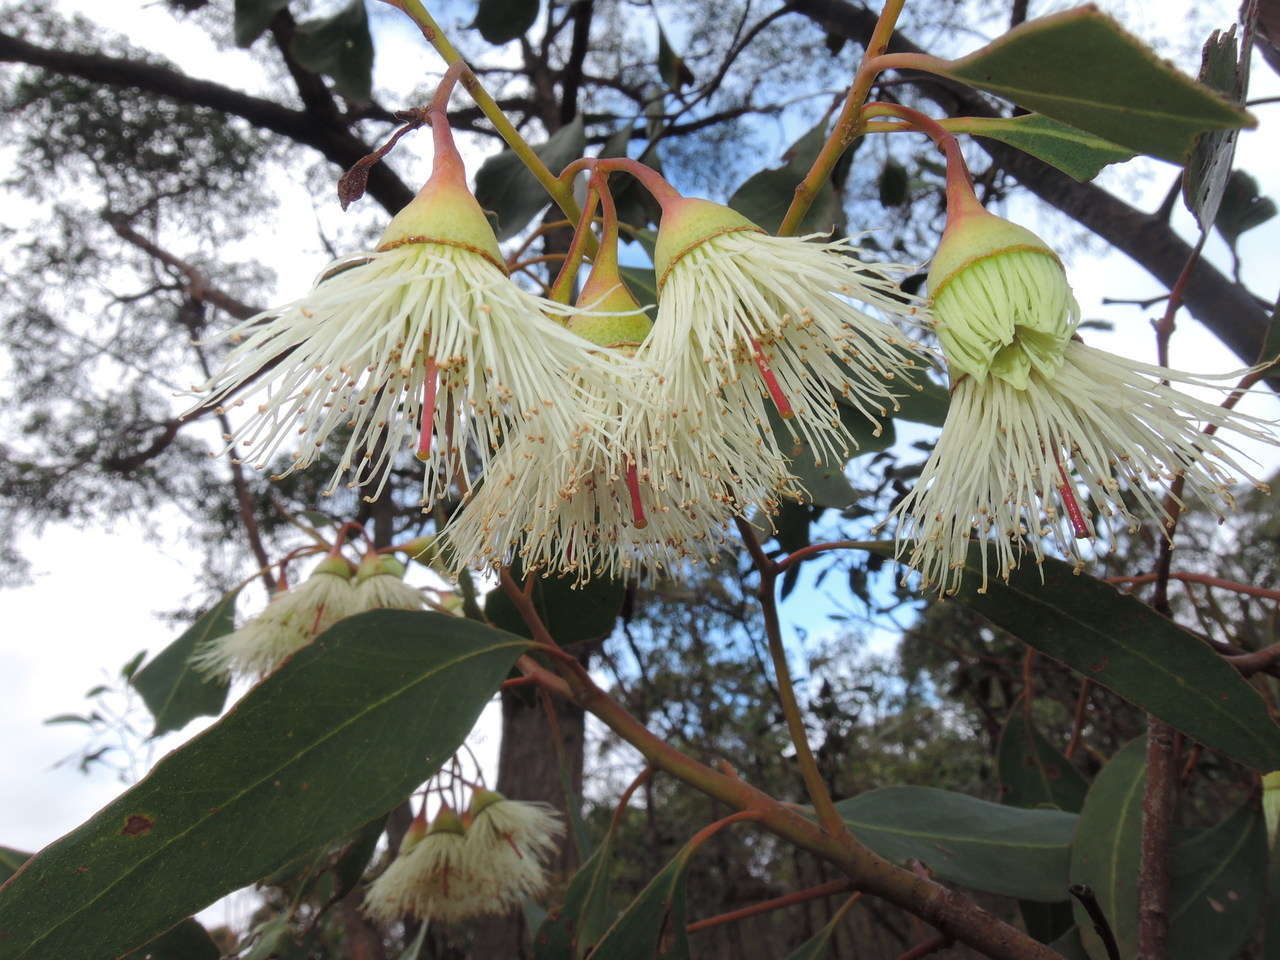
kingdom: Plantae
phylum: Tracheophyta
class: Magnoliopsida
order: Myrtales
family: Myrtaceae
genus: Eucalyptus
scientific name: Eucalyptus tricarpa
